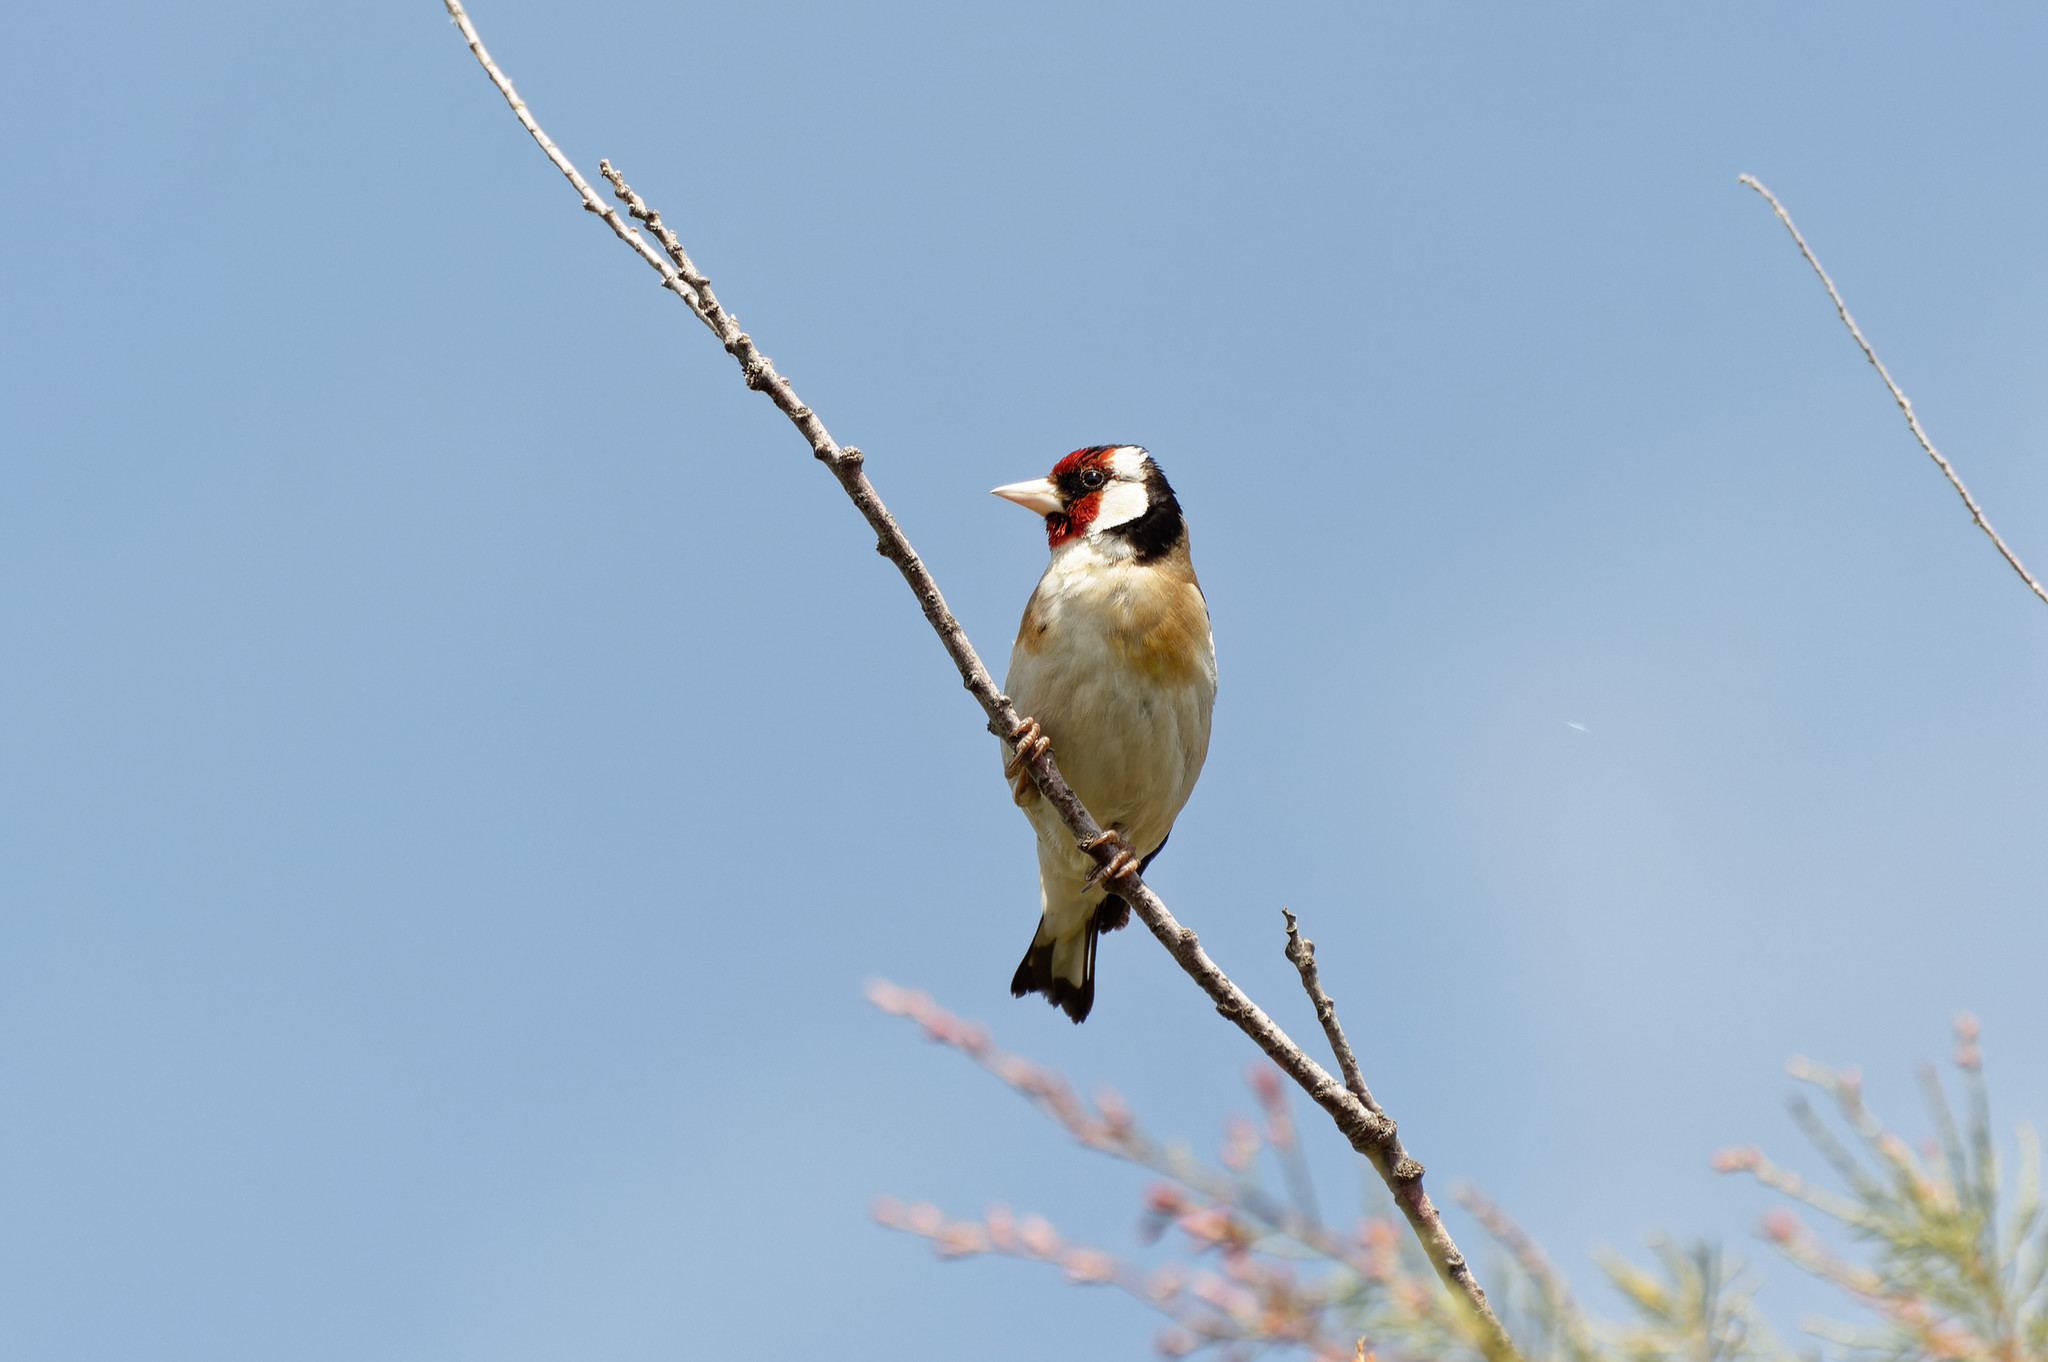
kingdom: Animalia
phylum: Chordata
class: Aves
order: Passeriformes
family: Fringillidae
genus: Carduelis
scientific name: Carduelis carduelis
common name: European goldfinch
